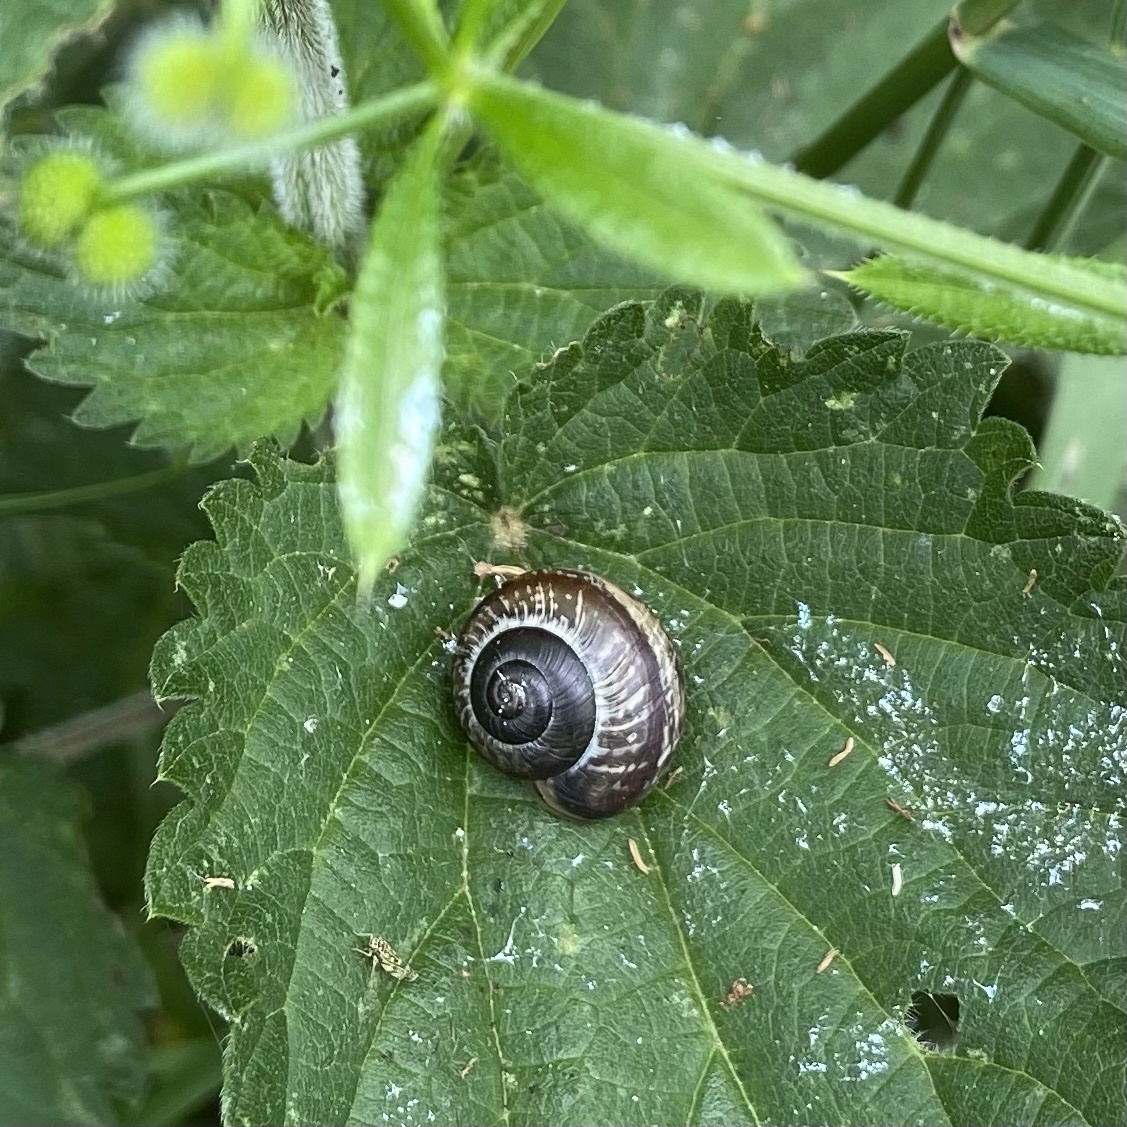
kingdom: Animalia
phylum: Mollusca
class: Gastropoda
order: Stylommatophora
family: Helicidae
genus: Arianta
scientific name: Arianta arbustorum
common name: Copse snail
